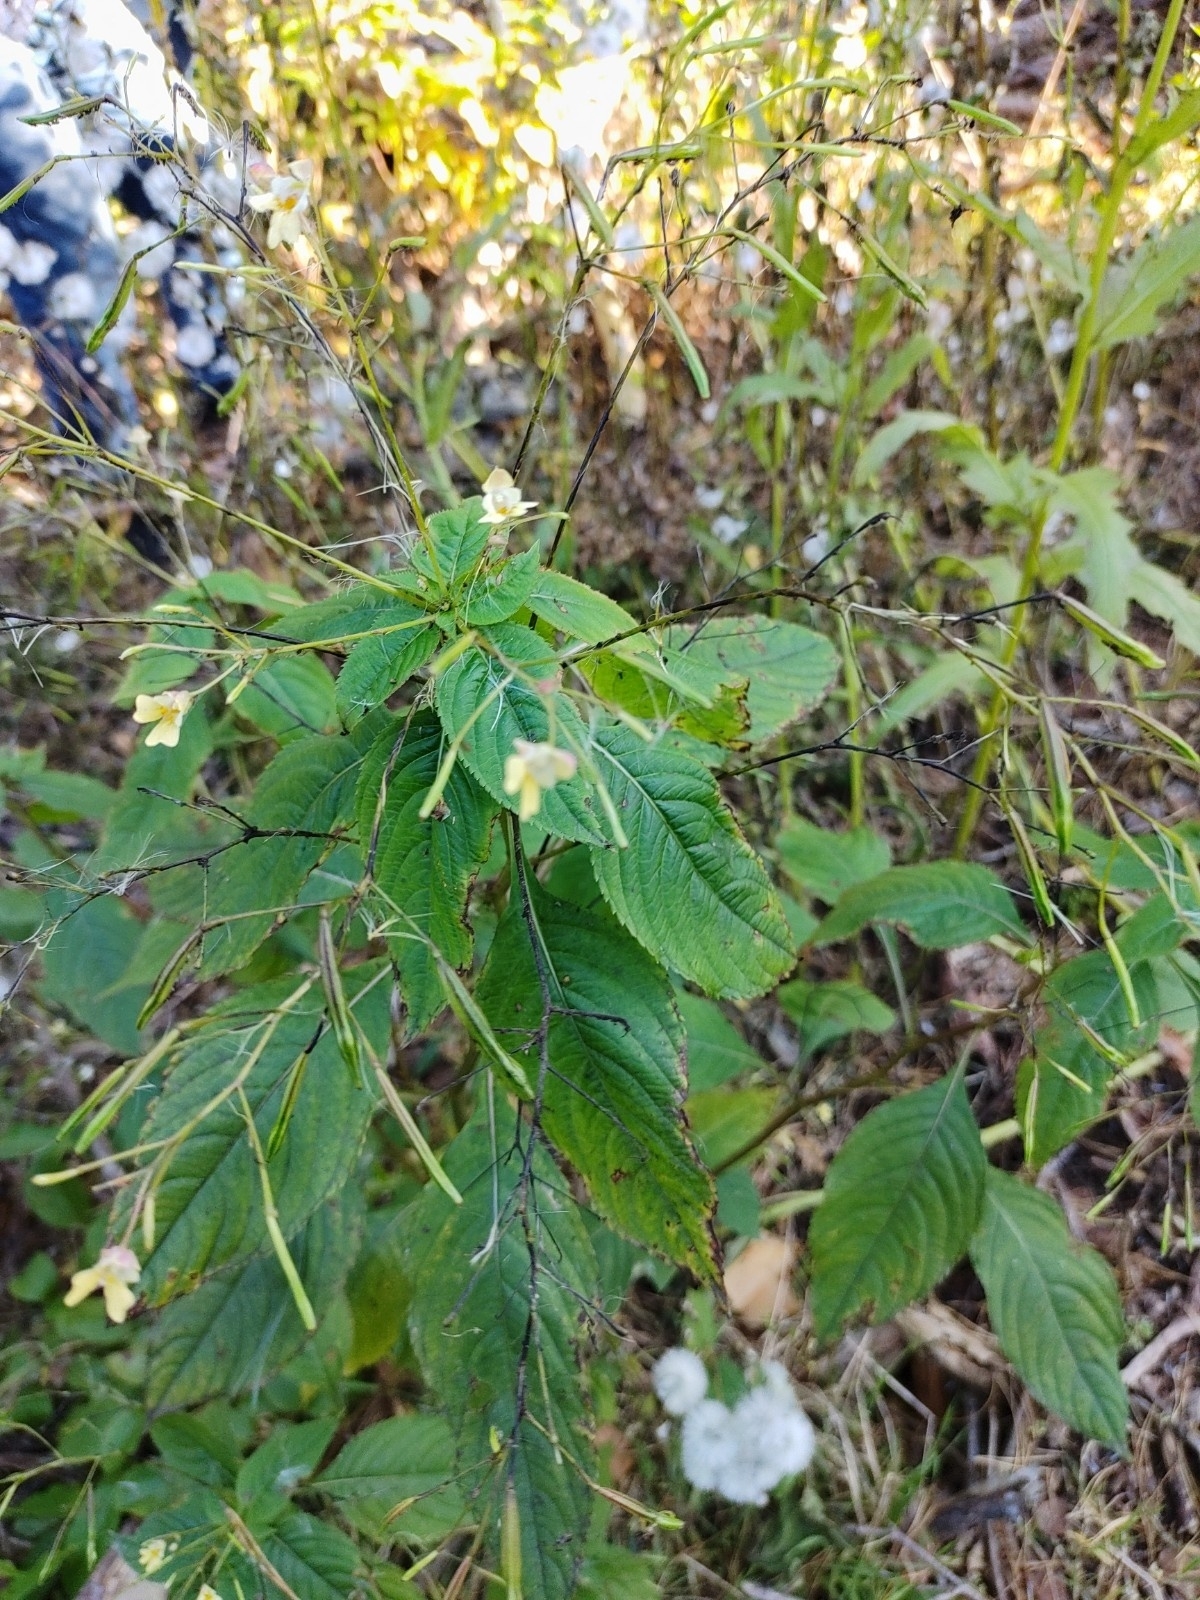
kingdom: Plantae
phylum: Tracheophyta
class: Magnoliopsida
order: Ericales
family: Balsaminaceae
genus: Impatiens
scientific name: Impatiens parviflora
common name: Small balsam
